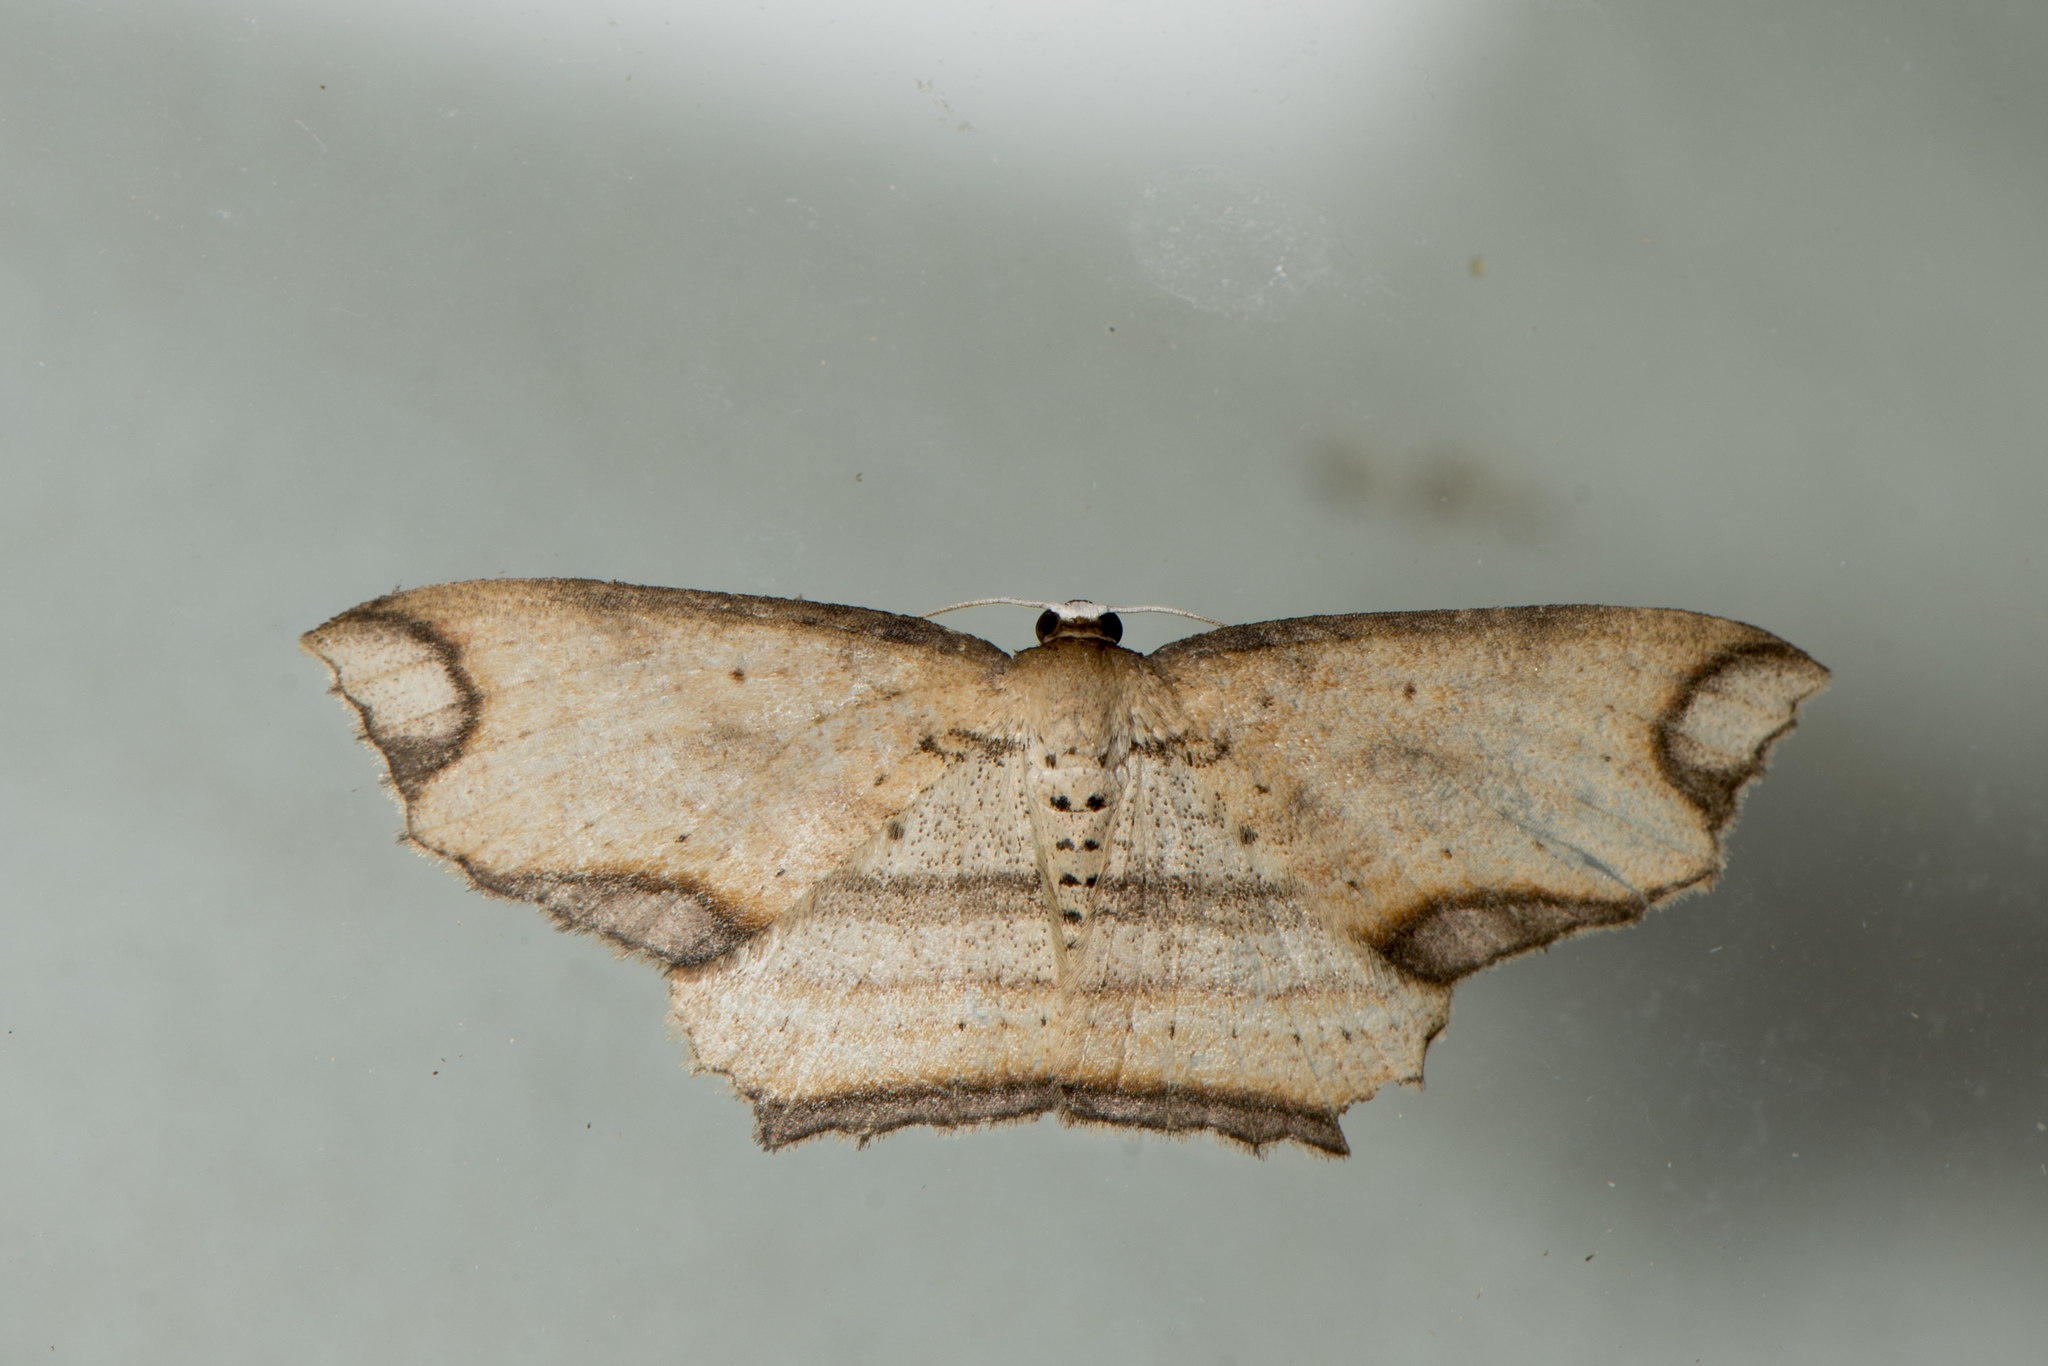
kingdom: Animalia
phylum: Arthropoda
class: Insecta
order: Lepidoptera
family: Geometridae
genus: Eschatarchia
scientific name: Eschatarchia lineata
